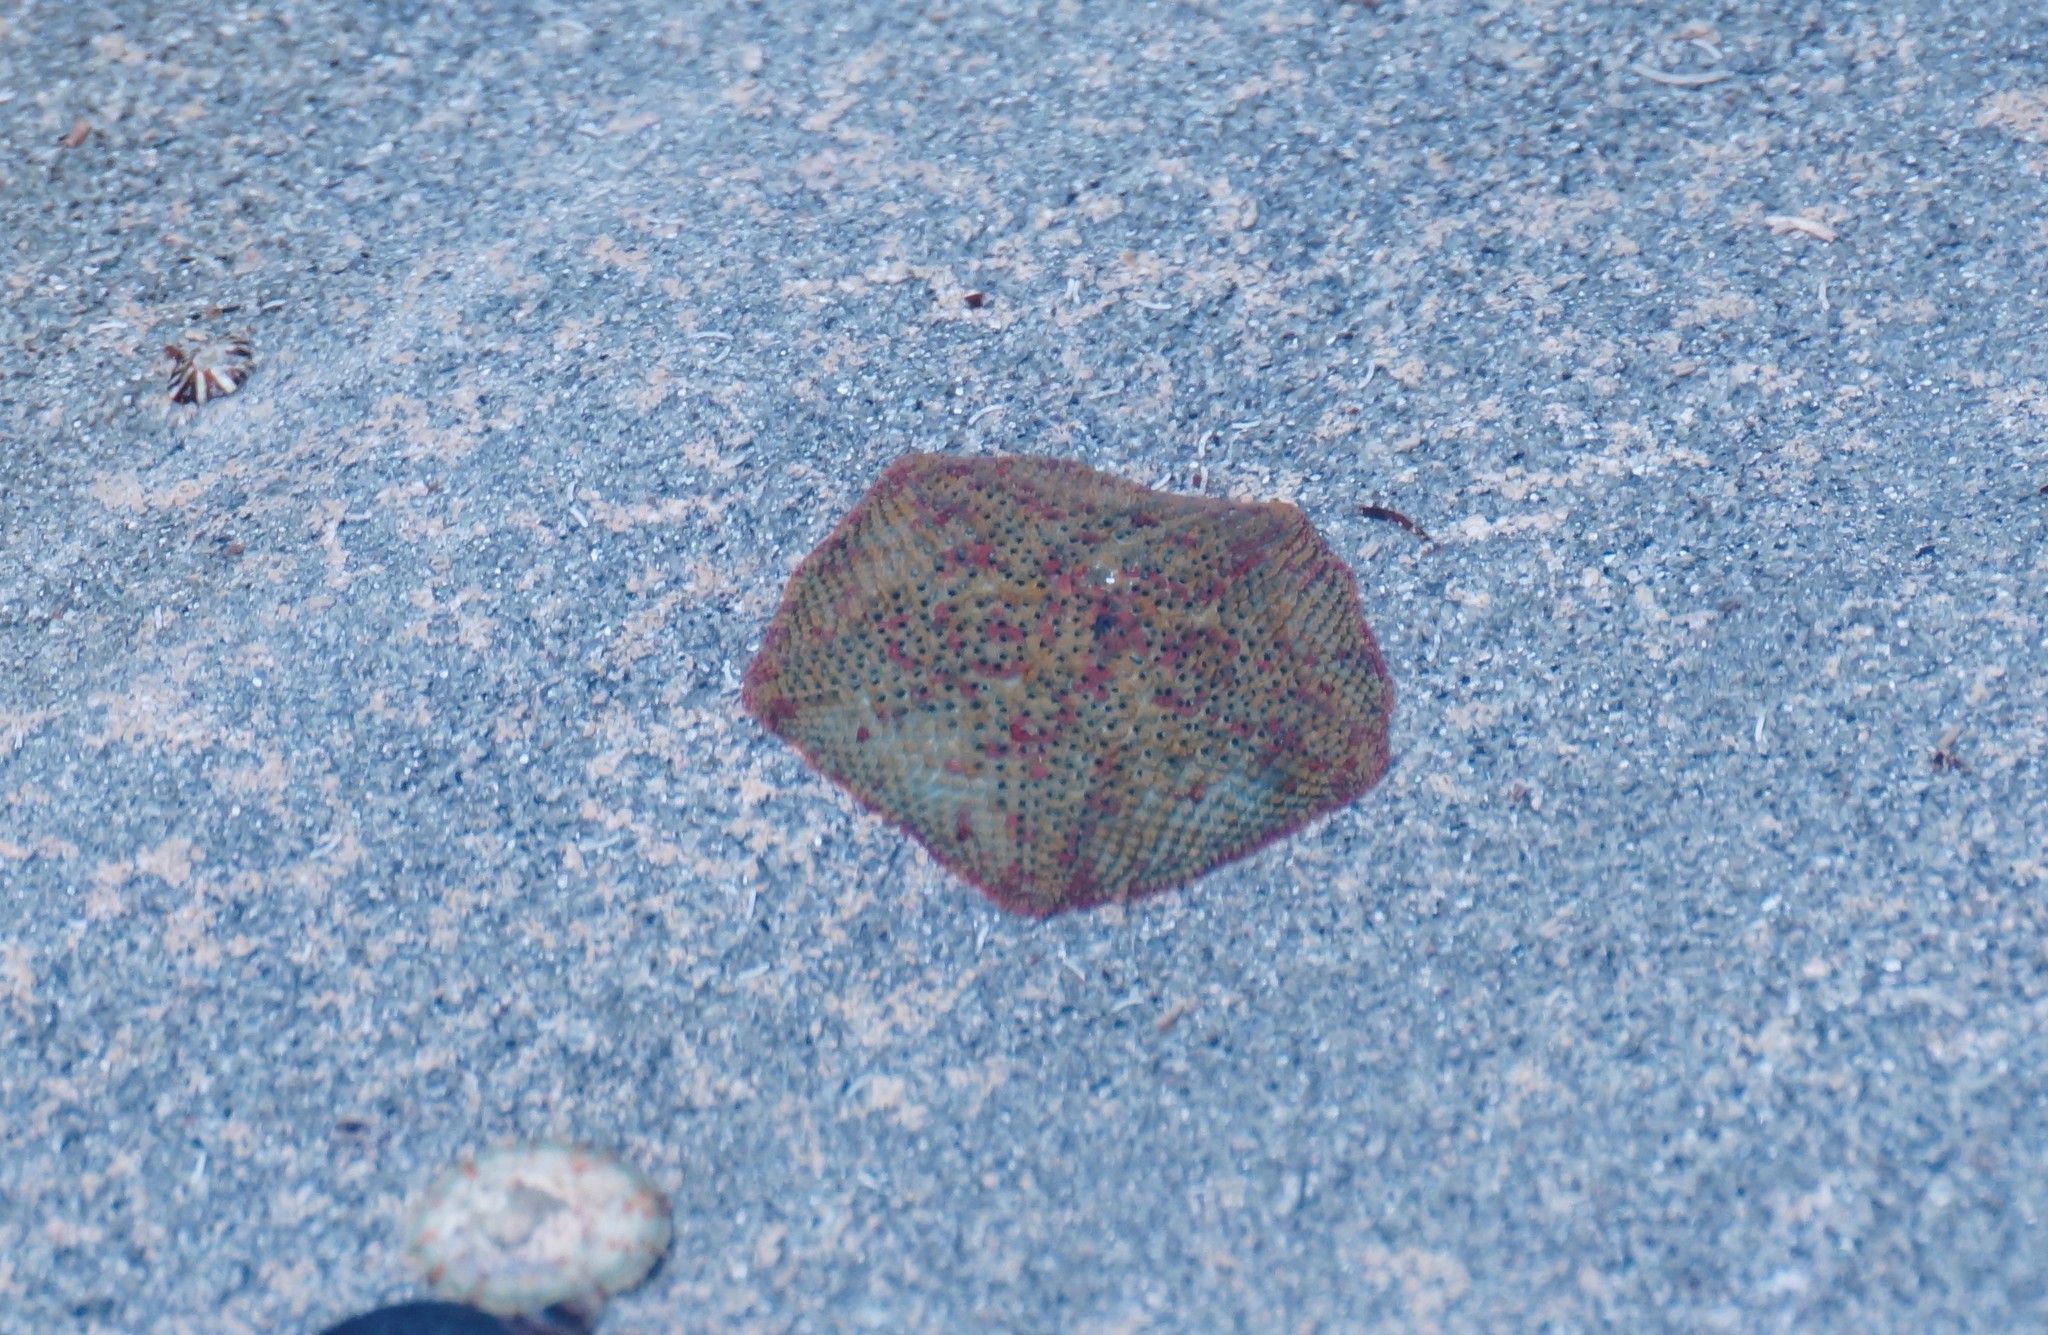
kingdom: Animalia
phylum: Echinodermata
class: Asteroidea
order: Valvatida
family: Asterinidae
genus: Parvulastra
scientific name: Parvulastra exigua
